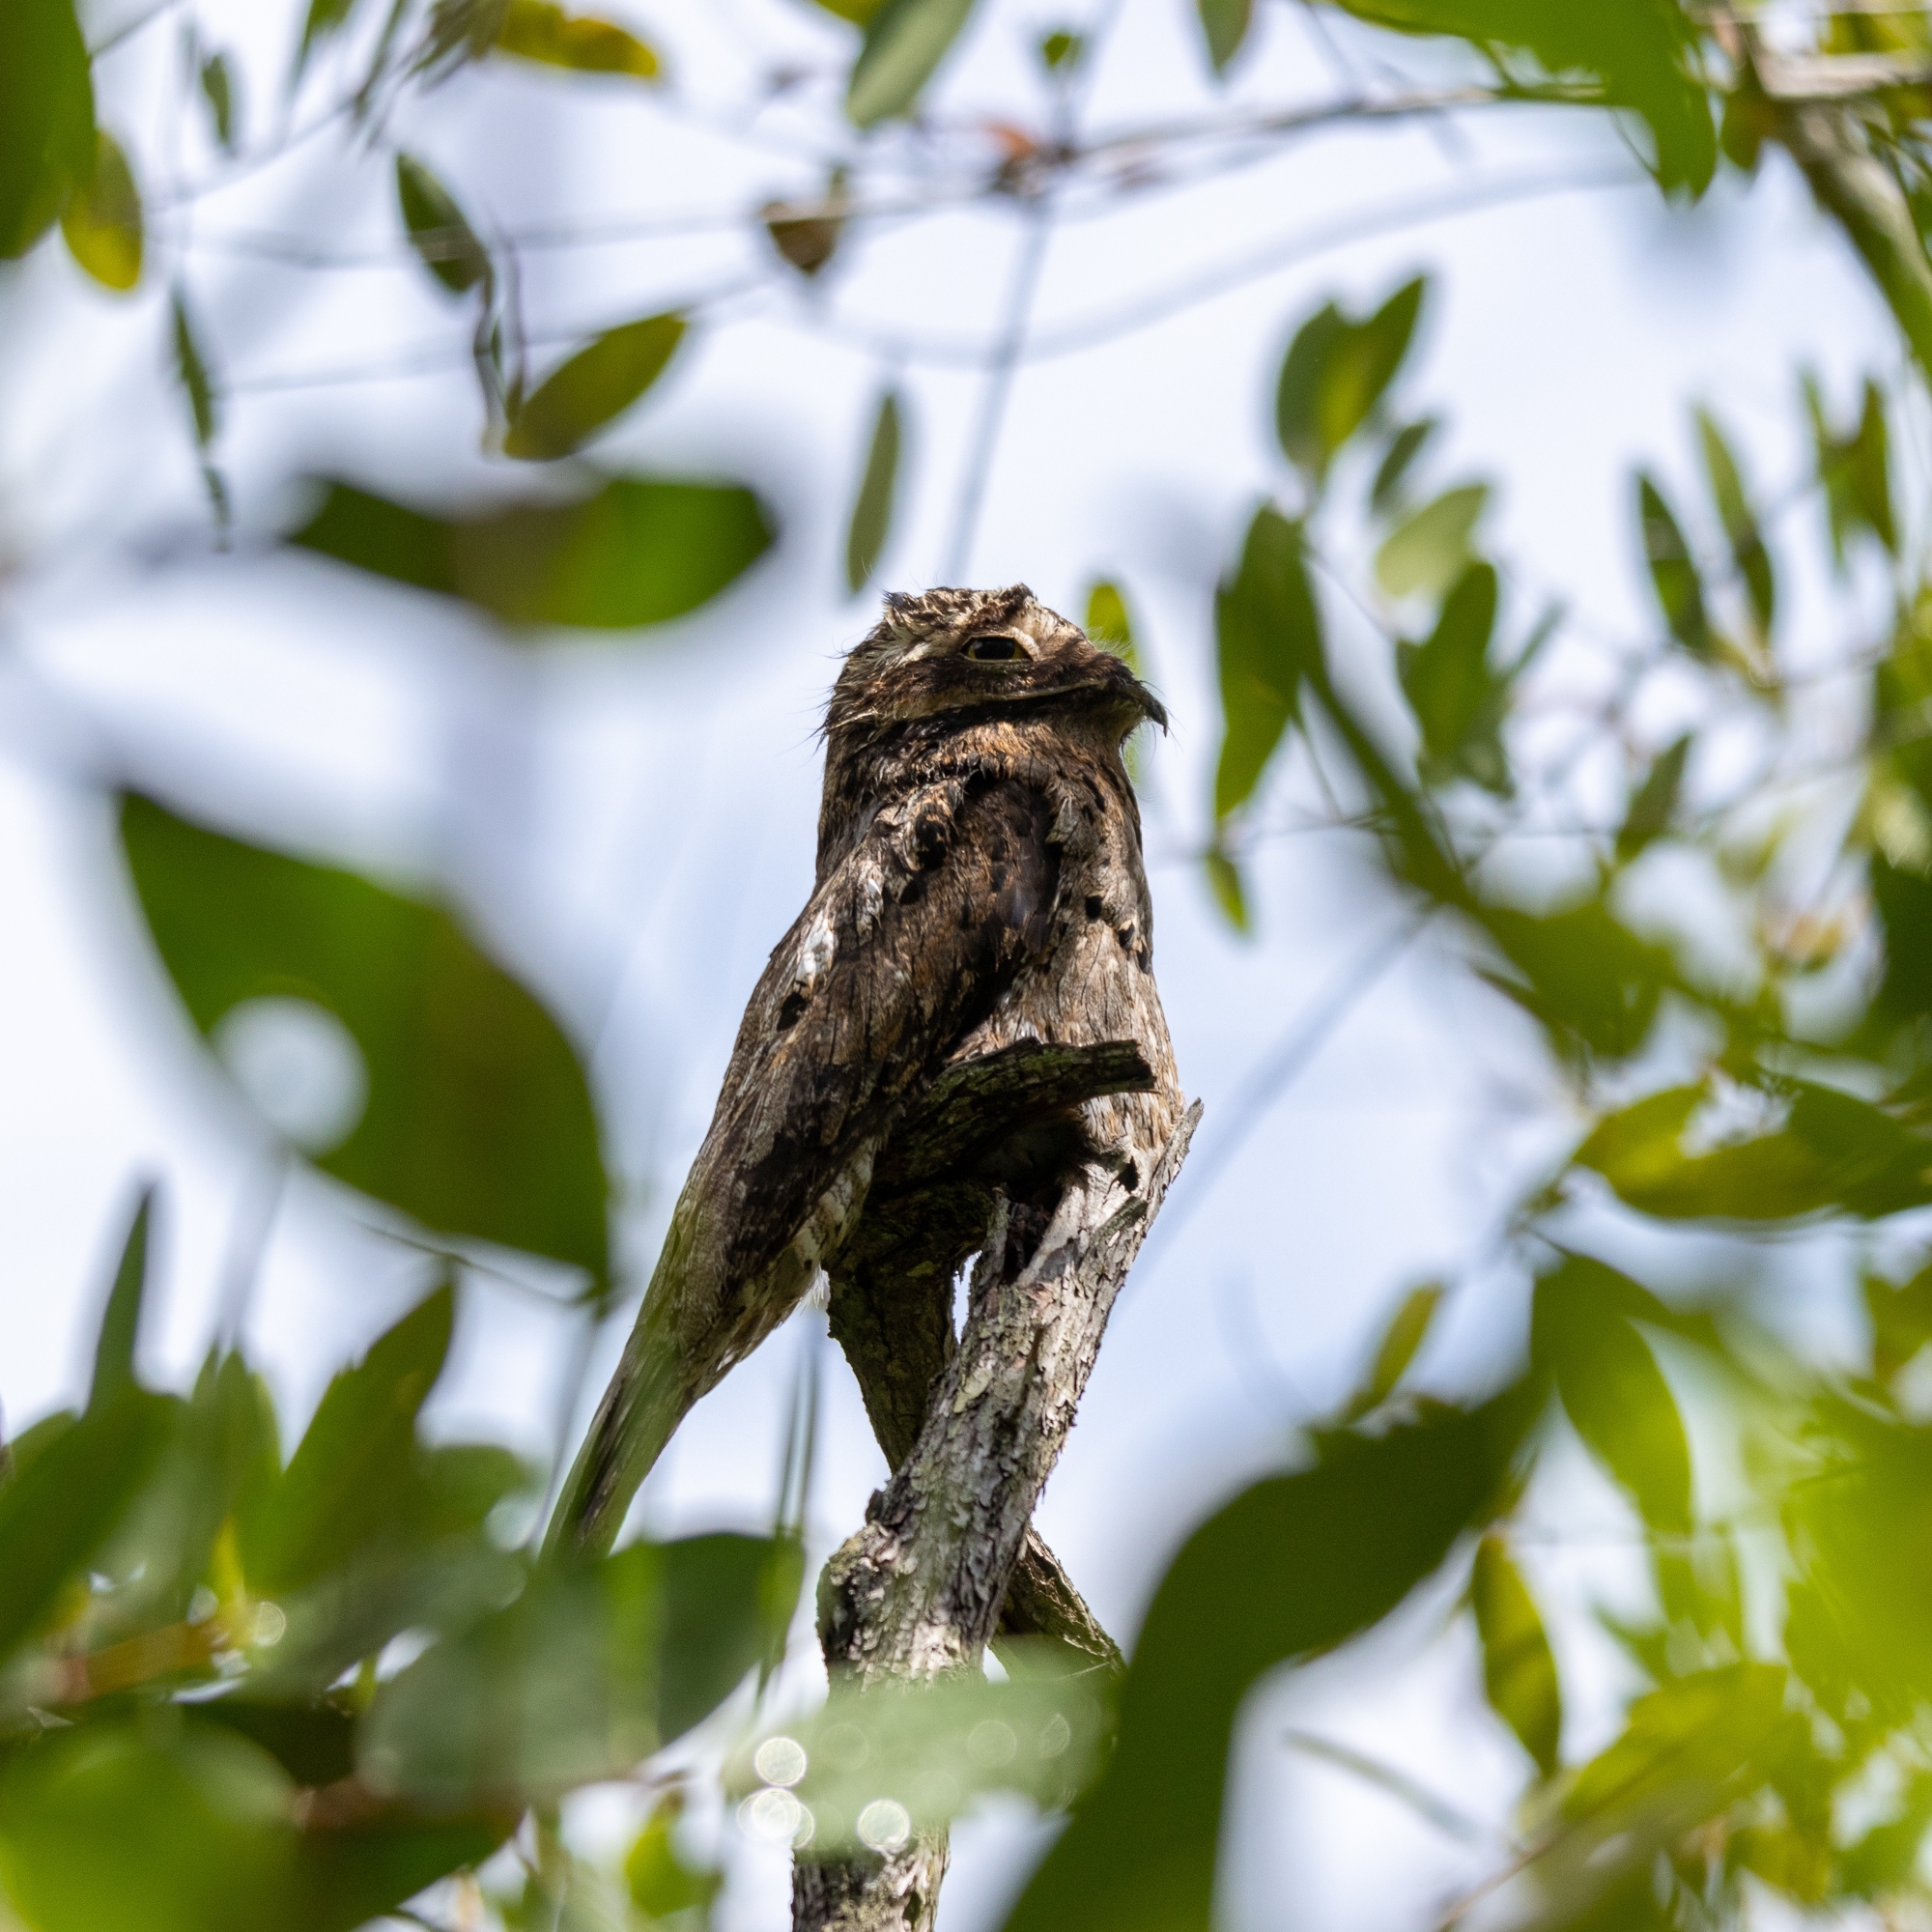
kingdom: Animalia
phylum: Chordata
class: Aves
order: Nyctibiiformes
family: Nyctibiidae
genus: Nyctibius
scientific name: Nyctibius griseus
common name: Common potoo
